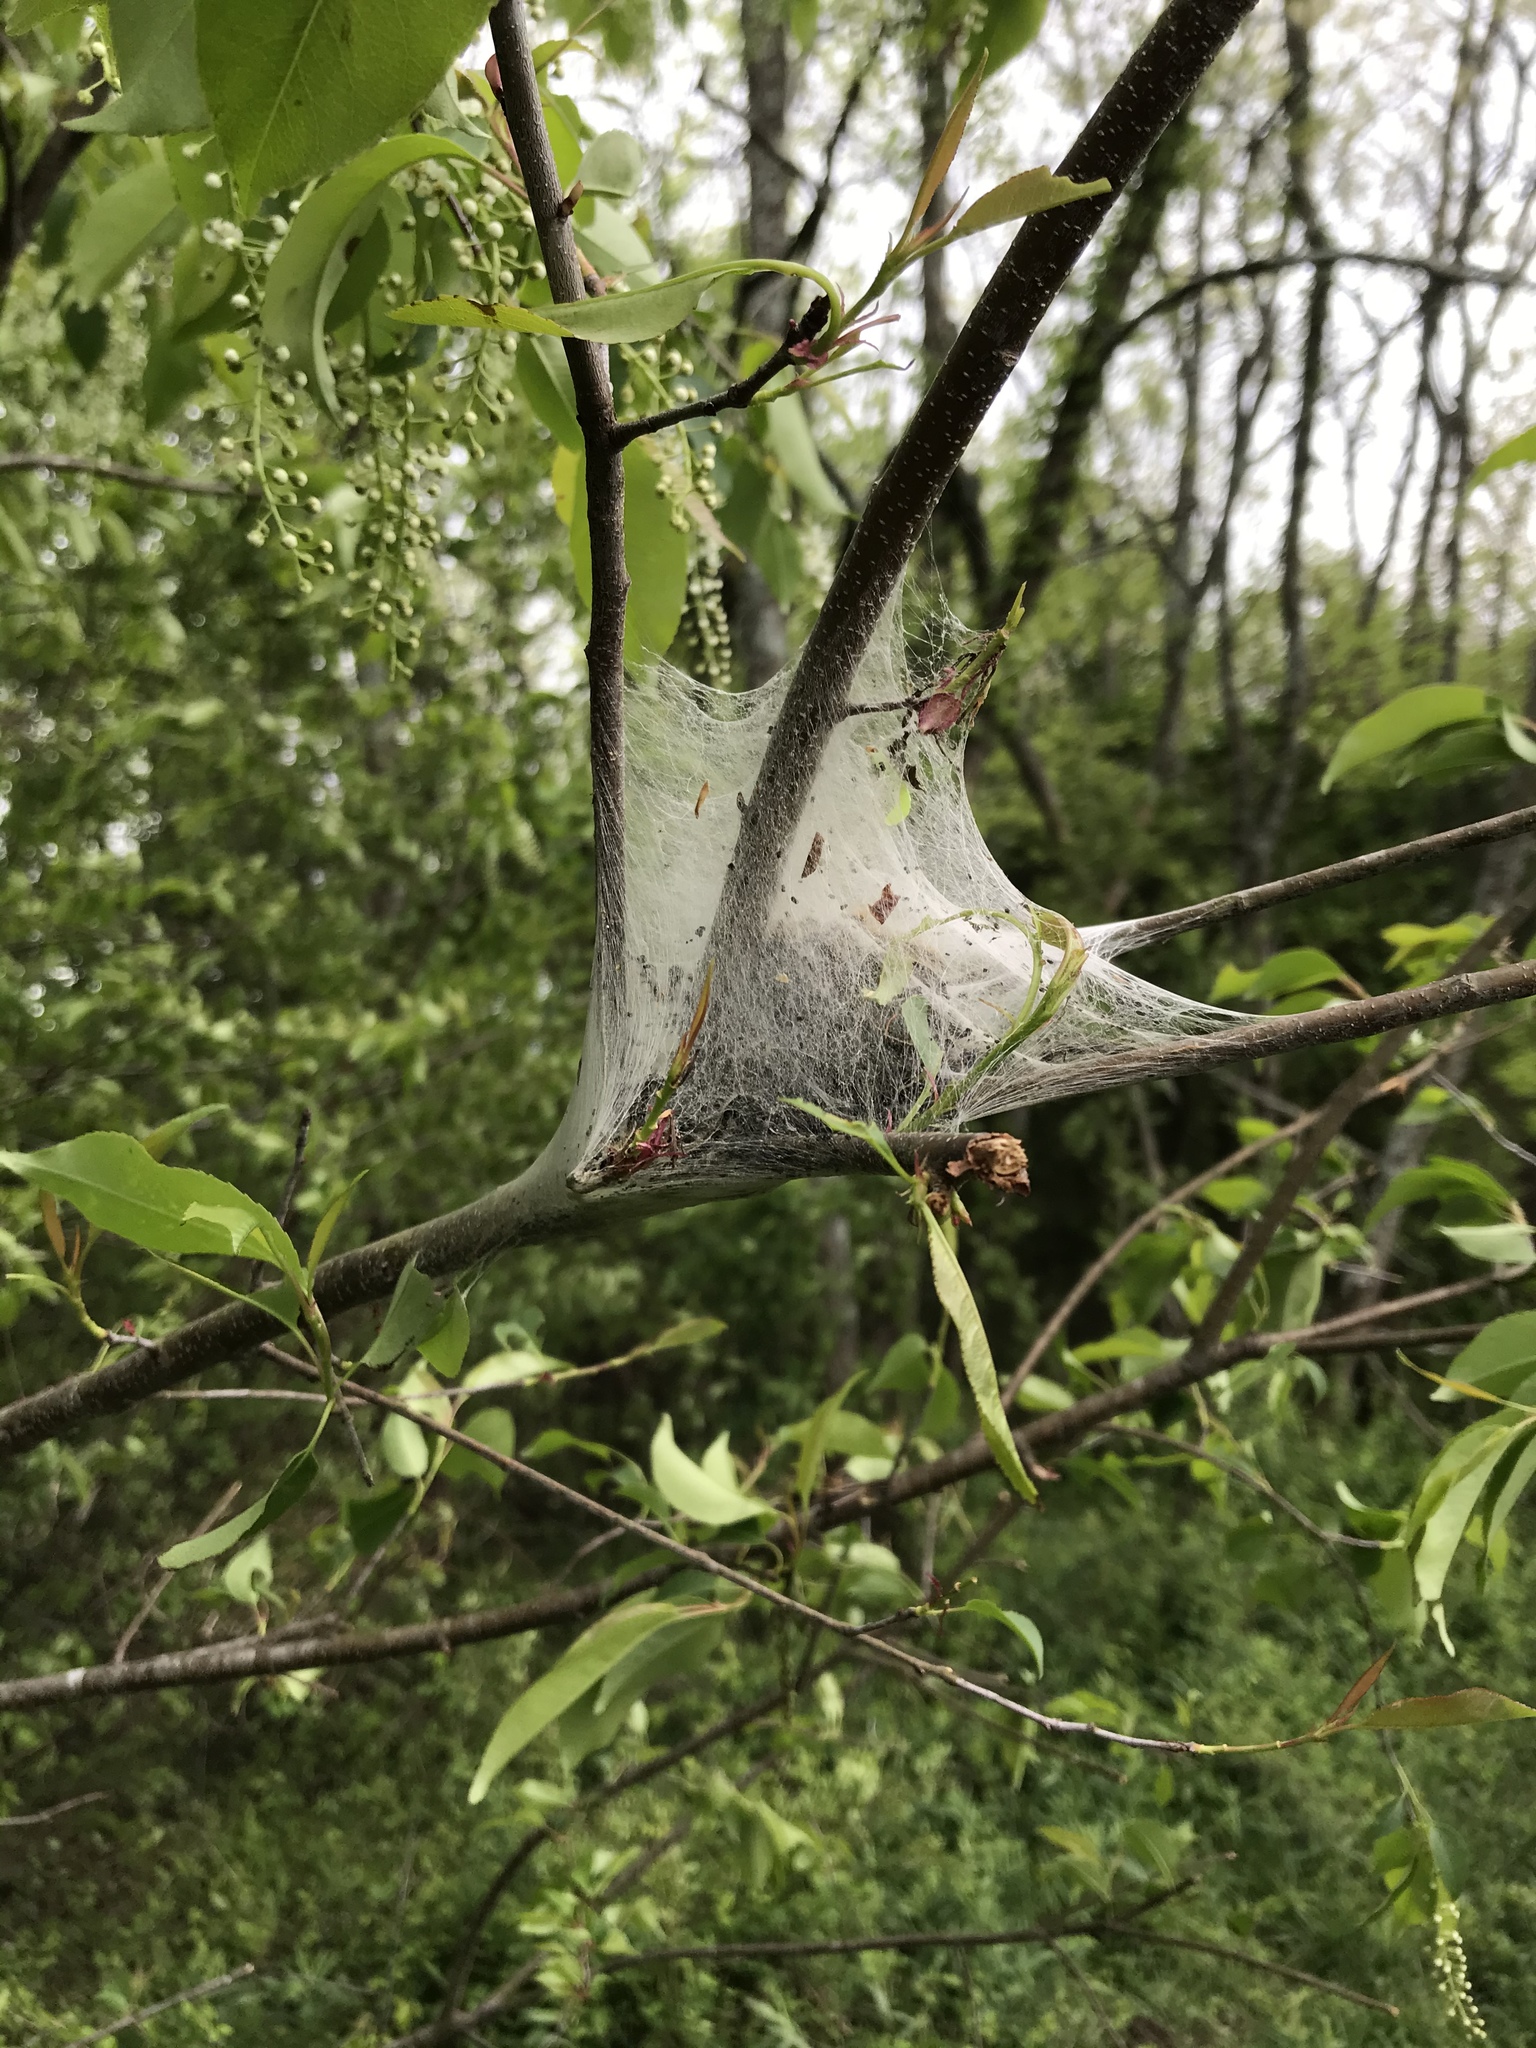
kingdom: Animalia
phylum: Arthropoda
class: Insecta
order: Lepidoptera
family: Lasiocampidae
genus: Malacosoma
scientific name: Malacosoma americana
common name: Eastern tent caterpillar moth
